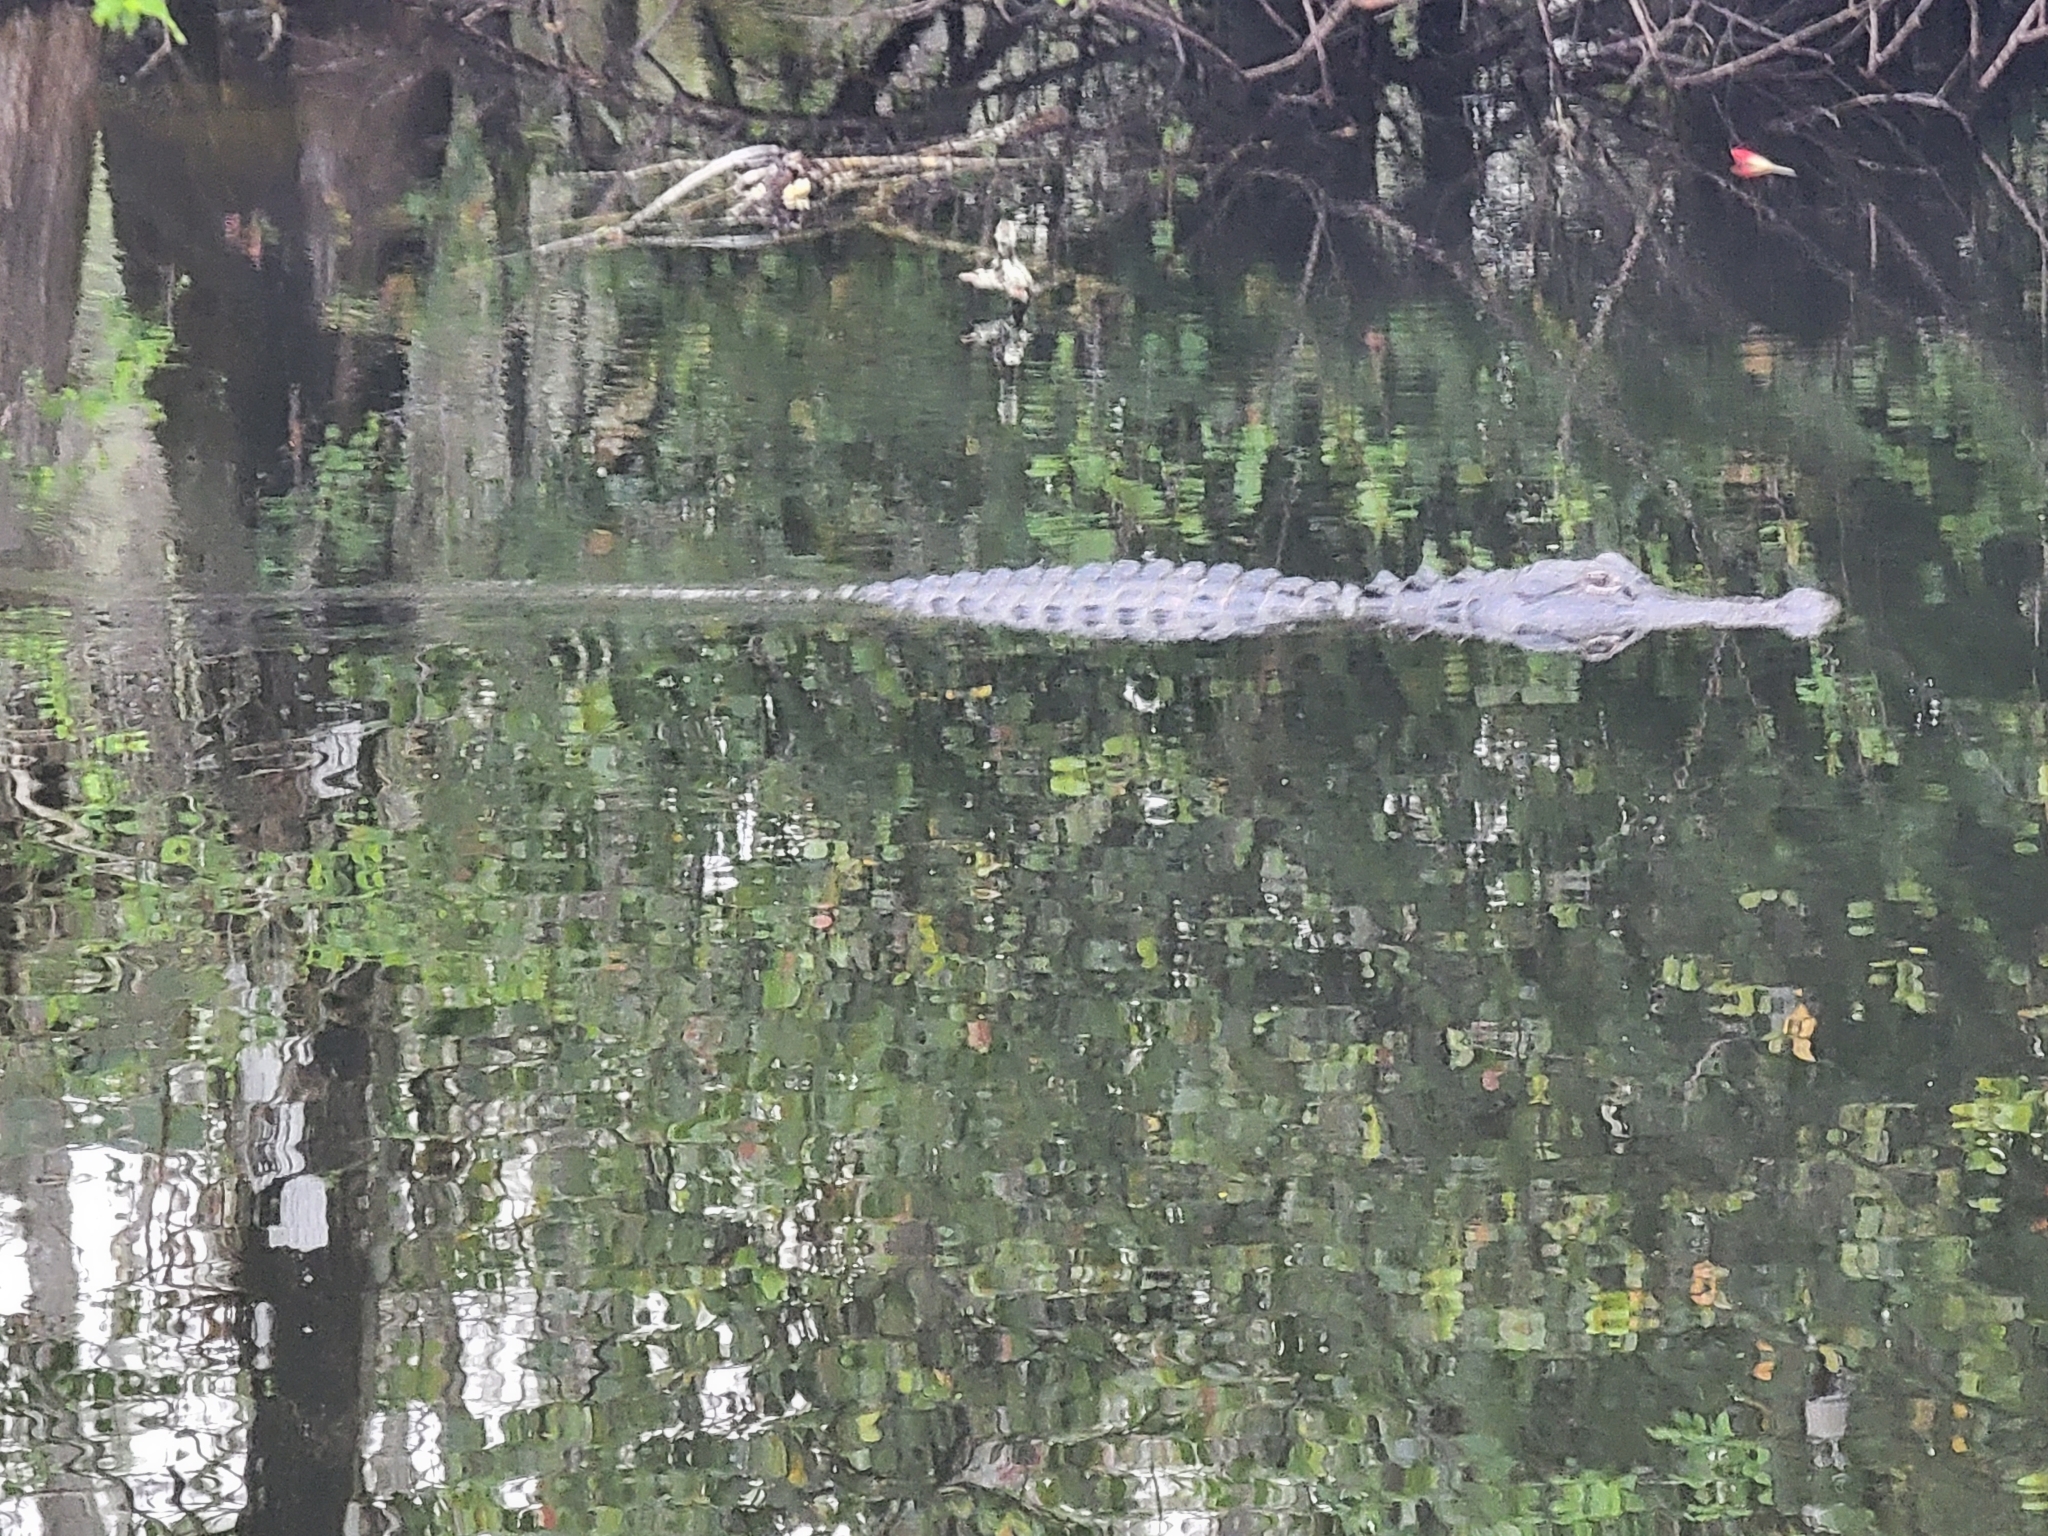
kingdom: Animalia
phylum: Chordata
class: Crocodylia
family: Alligatoridae
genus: Alligator
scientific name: Alligator mississippiensis
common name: American alligator
